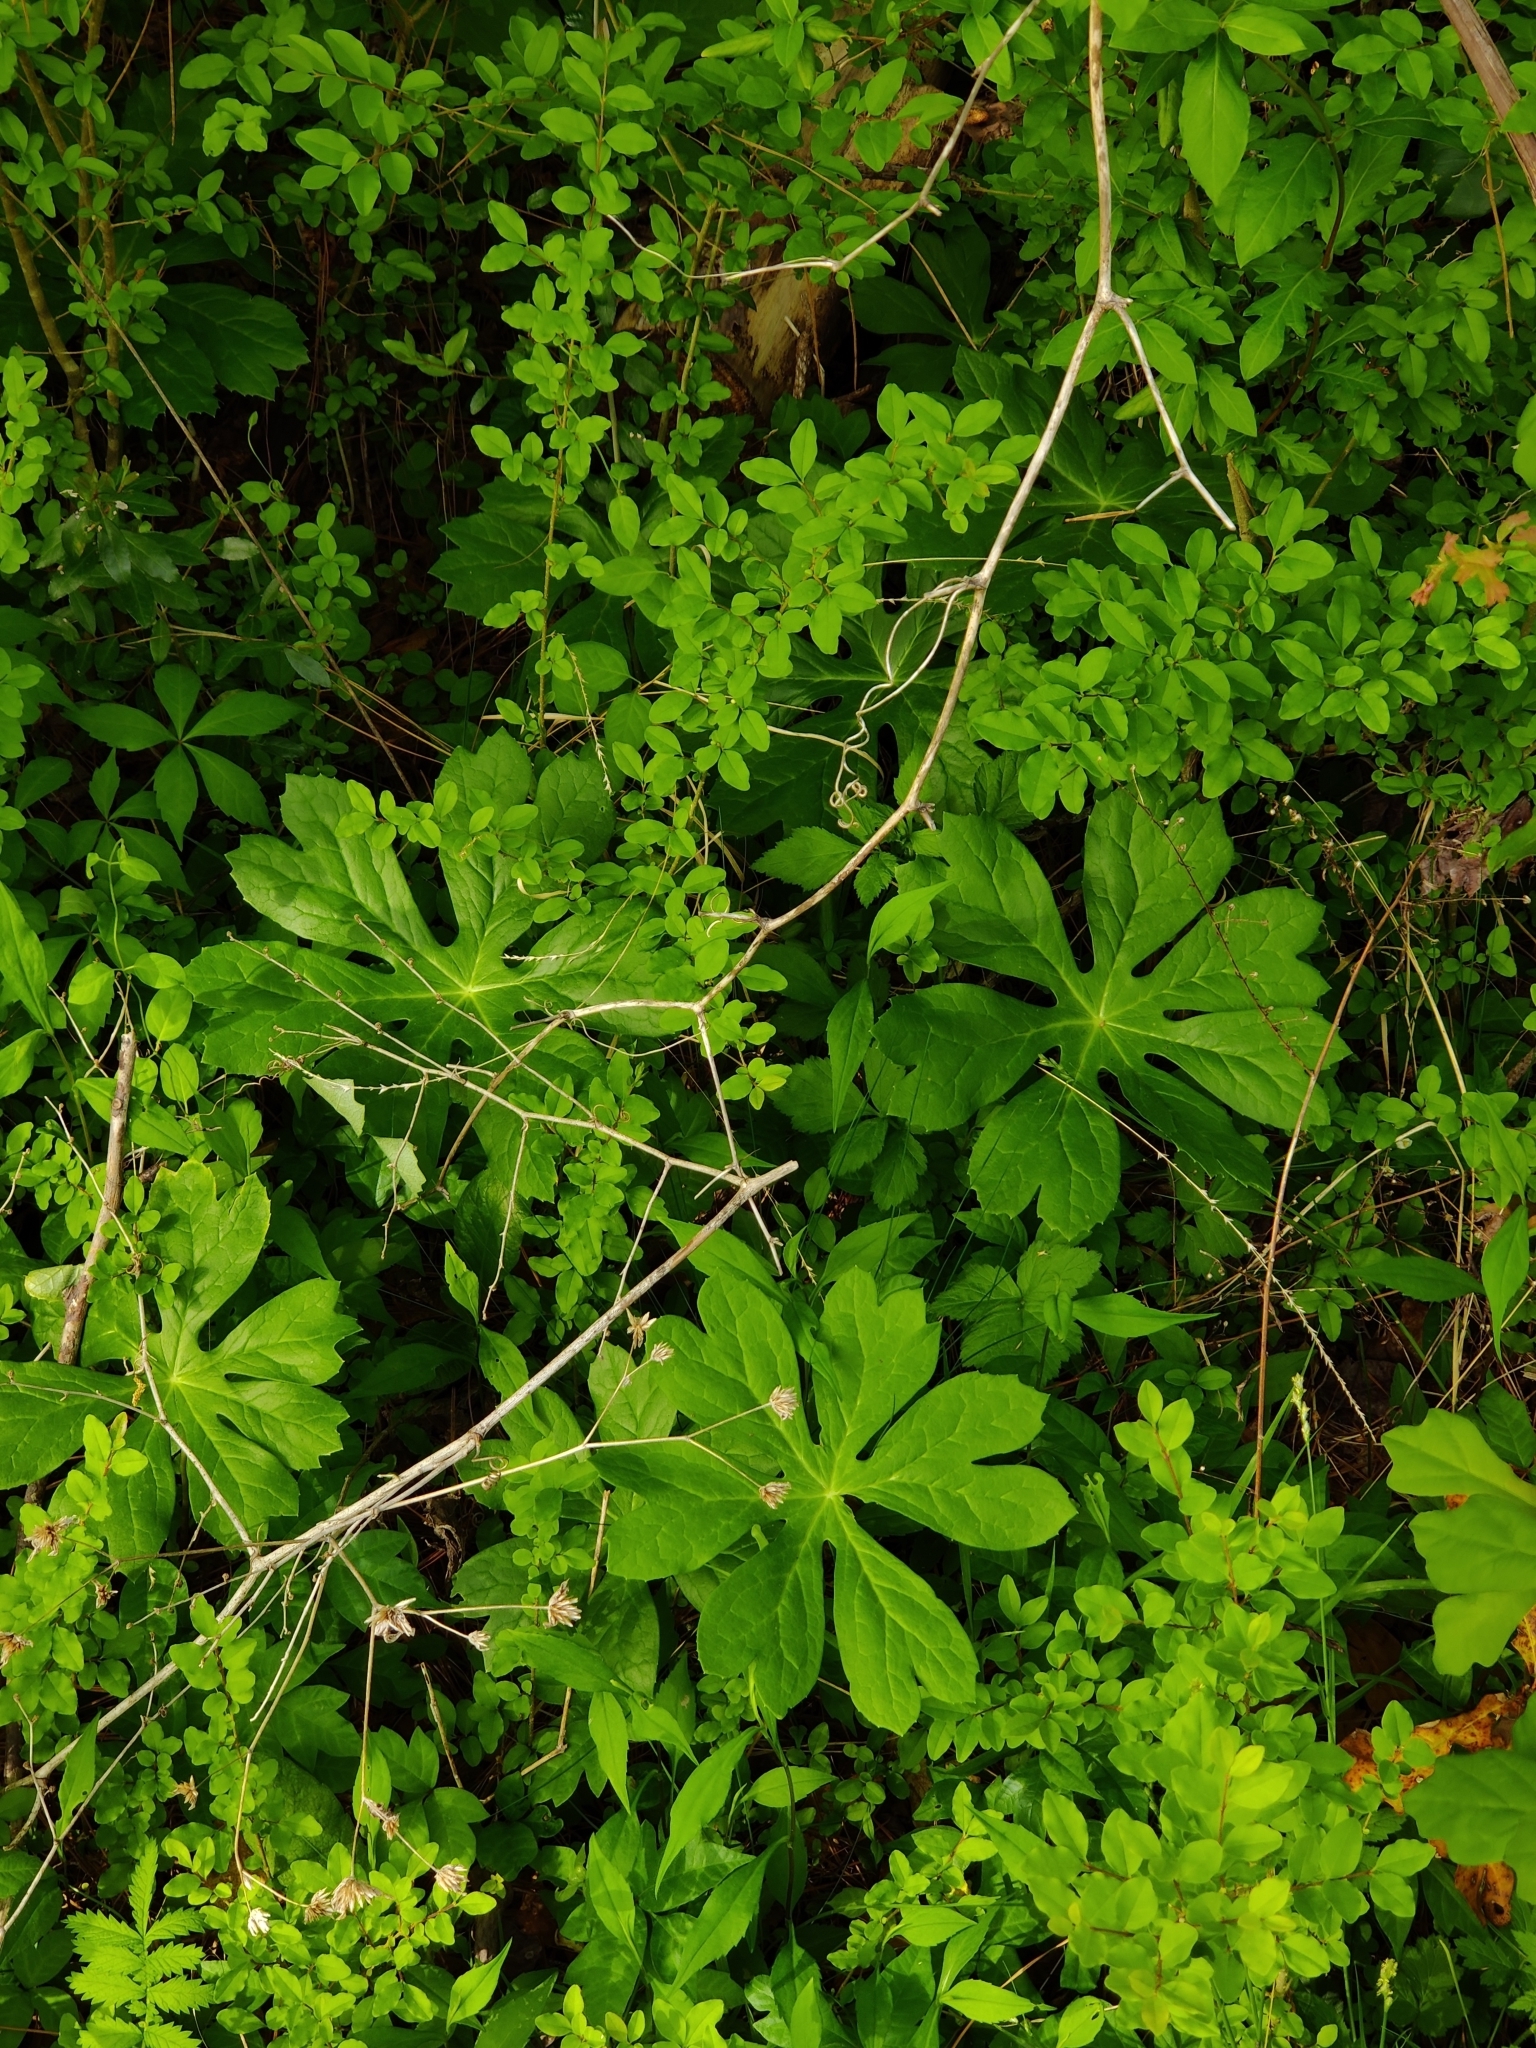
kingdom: Plantae
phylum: Tracheophyta
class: Magnoliopsida
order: Ranunculales
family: Berberidaceae
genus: Podophyllum
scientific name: Podophyllum peltatum
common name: Wild mandrake
